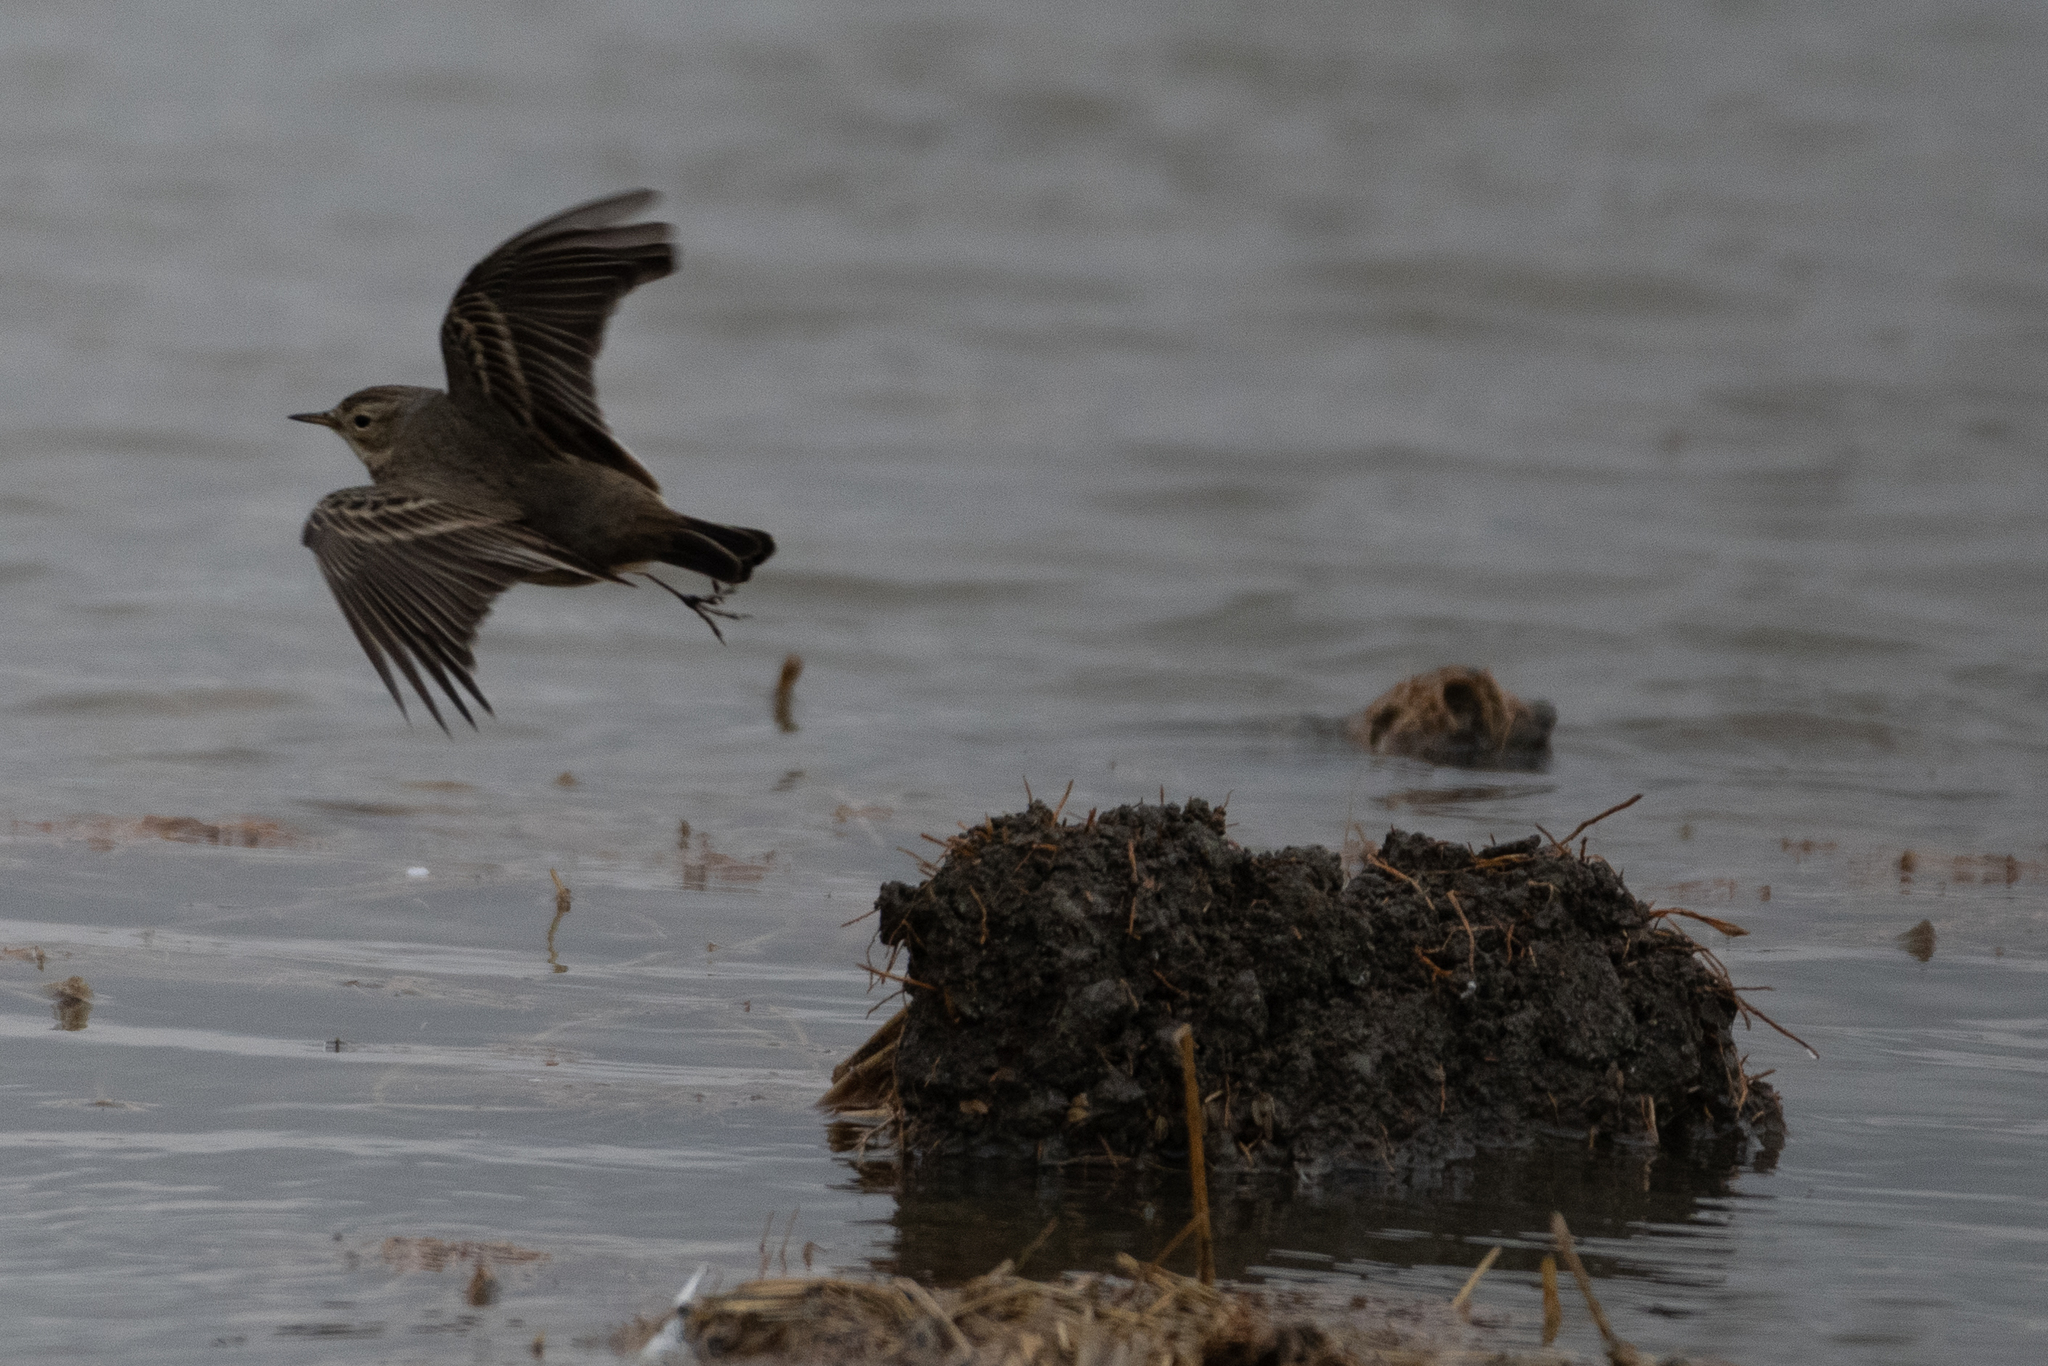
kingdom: Animalia
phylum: Chordata
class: Aves
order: Passeriformes
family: Motacillidae
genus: Anthus
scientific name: Anthus rubescens
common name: Buff-bellied pipit
